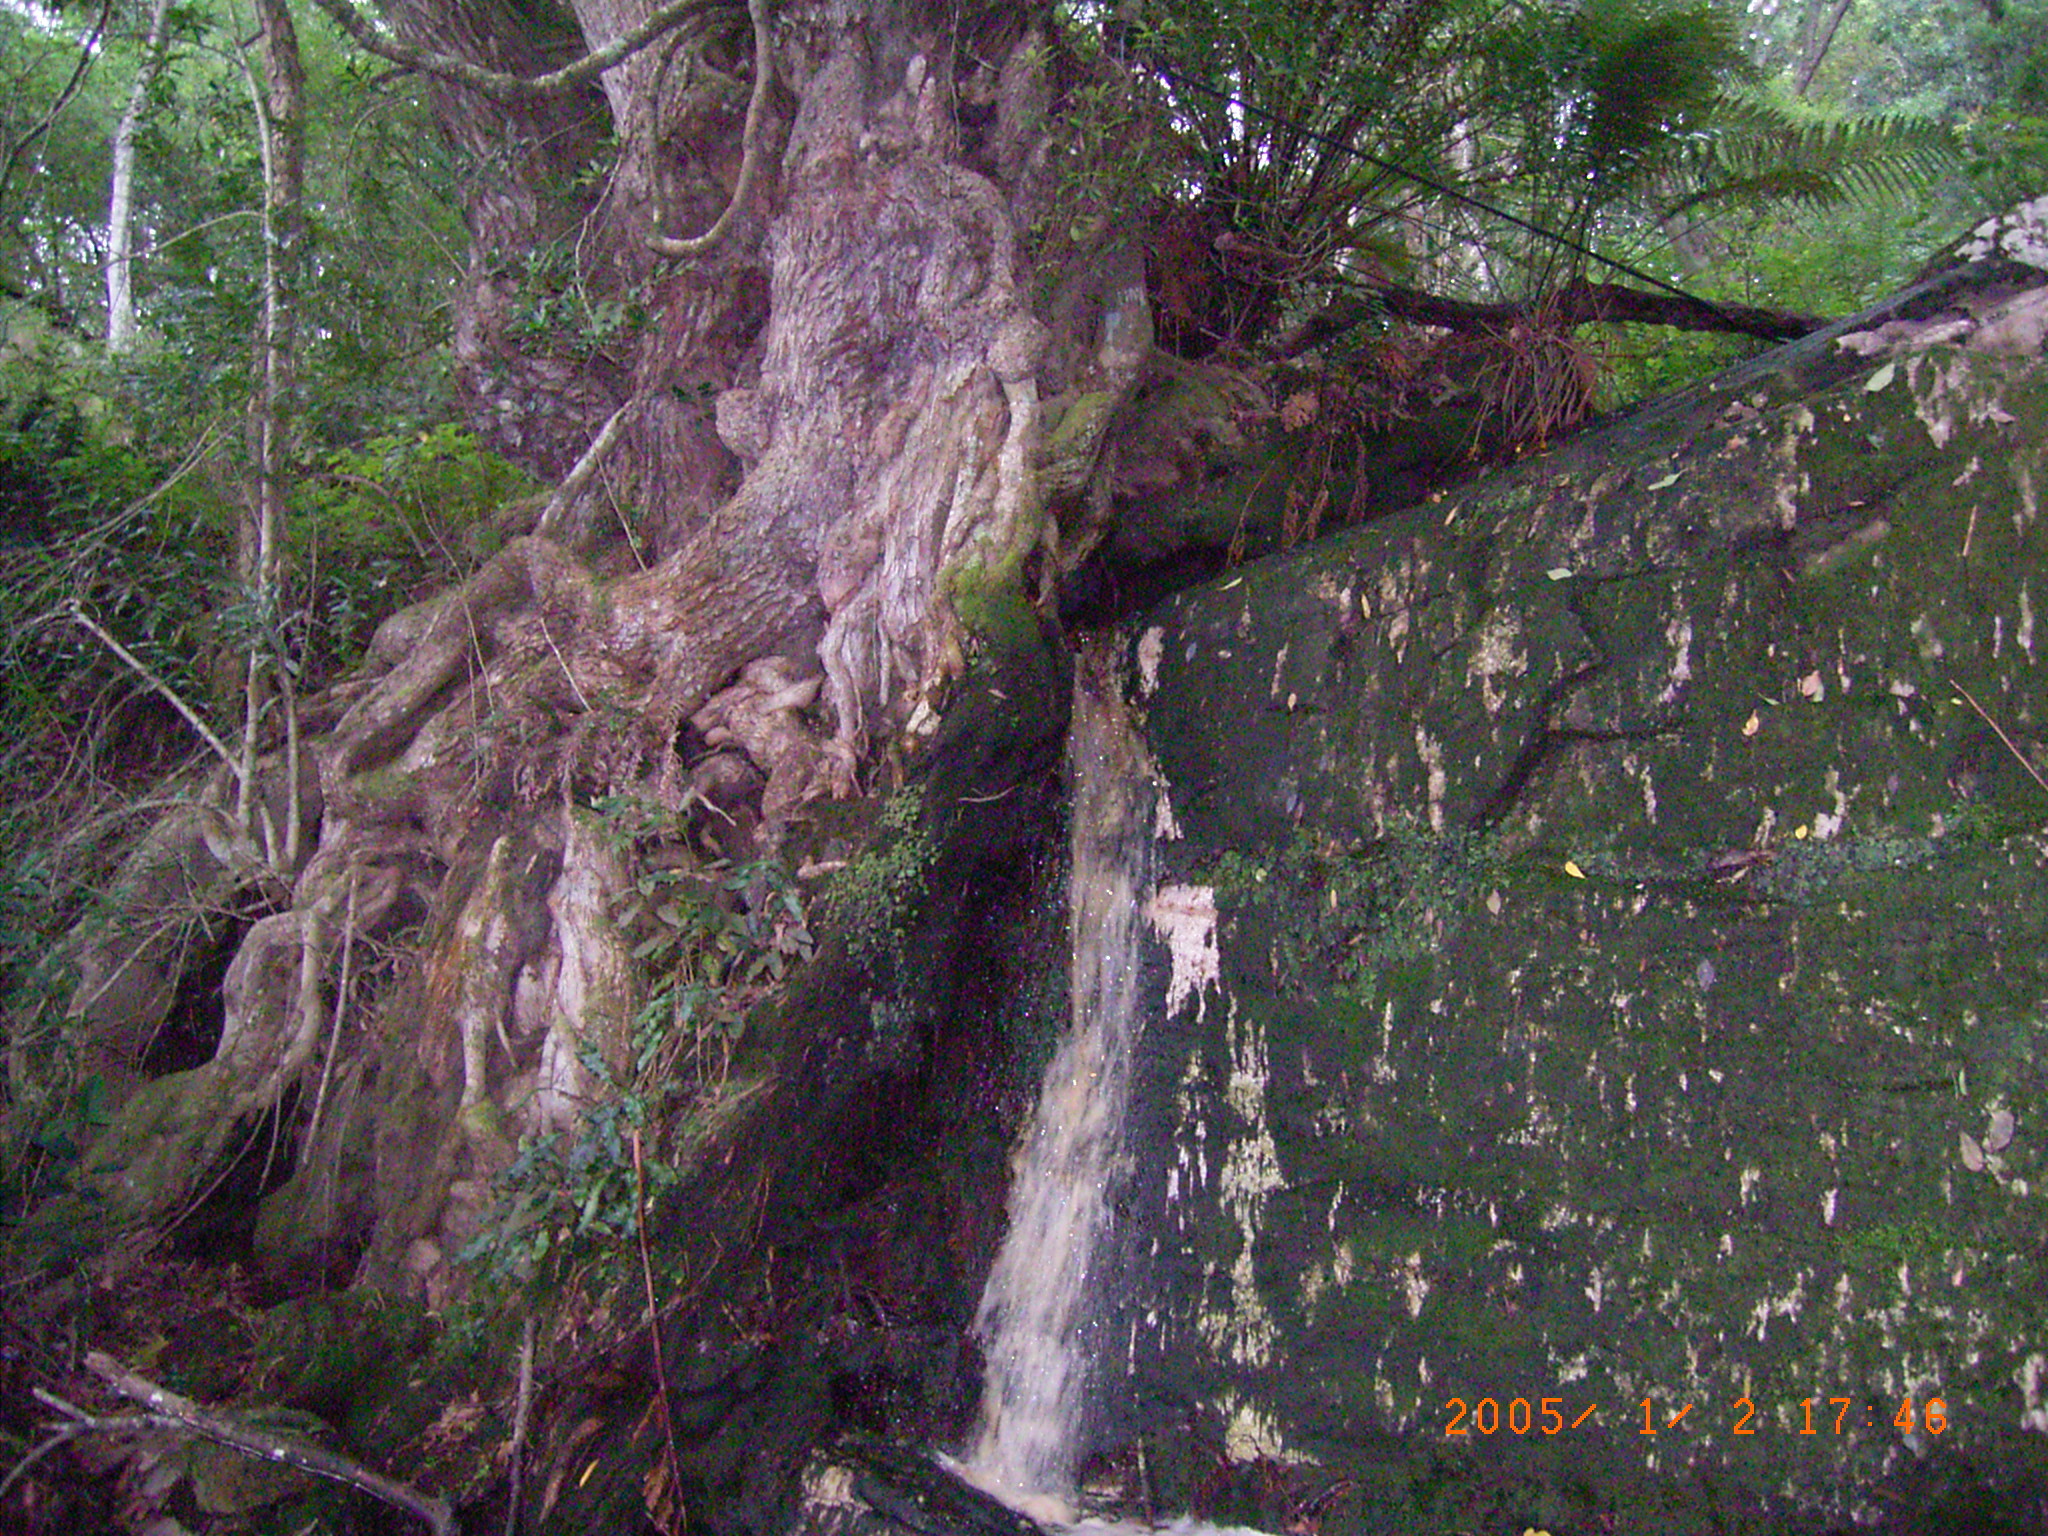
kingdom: Plantae
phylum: Tracheophyta
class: Magnoliopsida
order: Oxalidales
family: Cunoniaceae
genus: Platylophus
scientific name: Platylophus trifoliatus
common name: White alder
